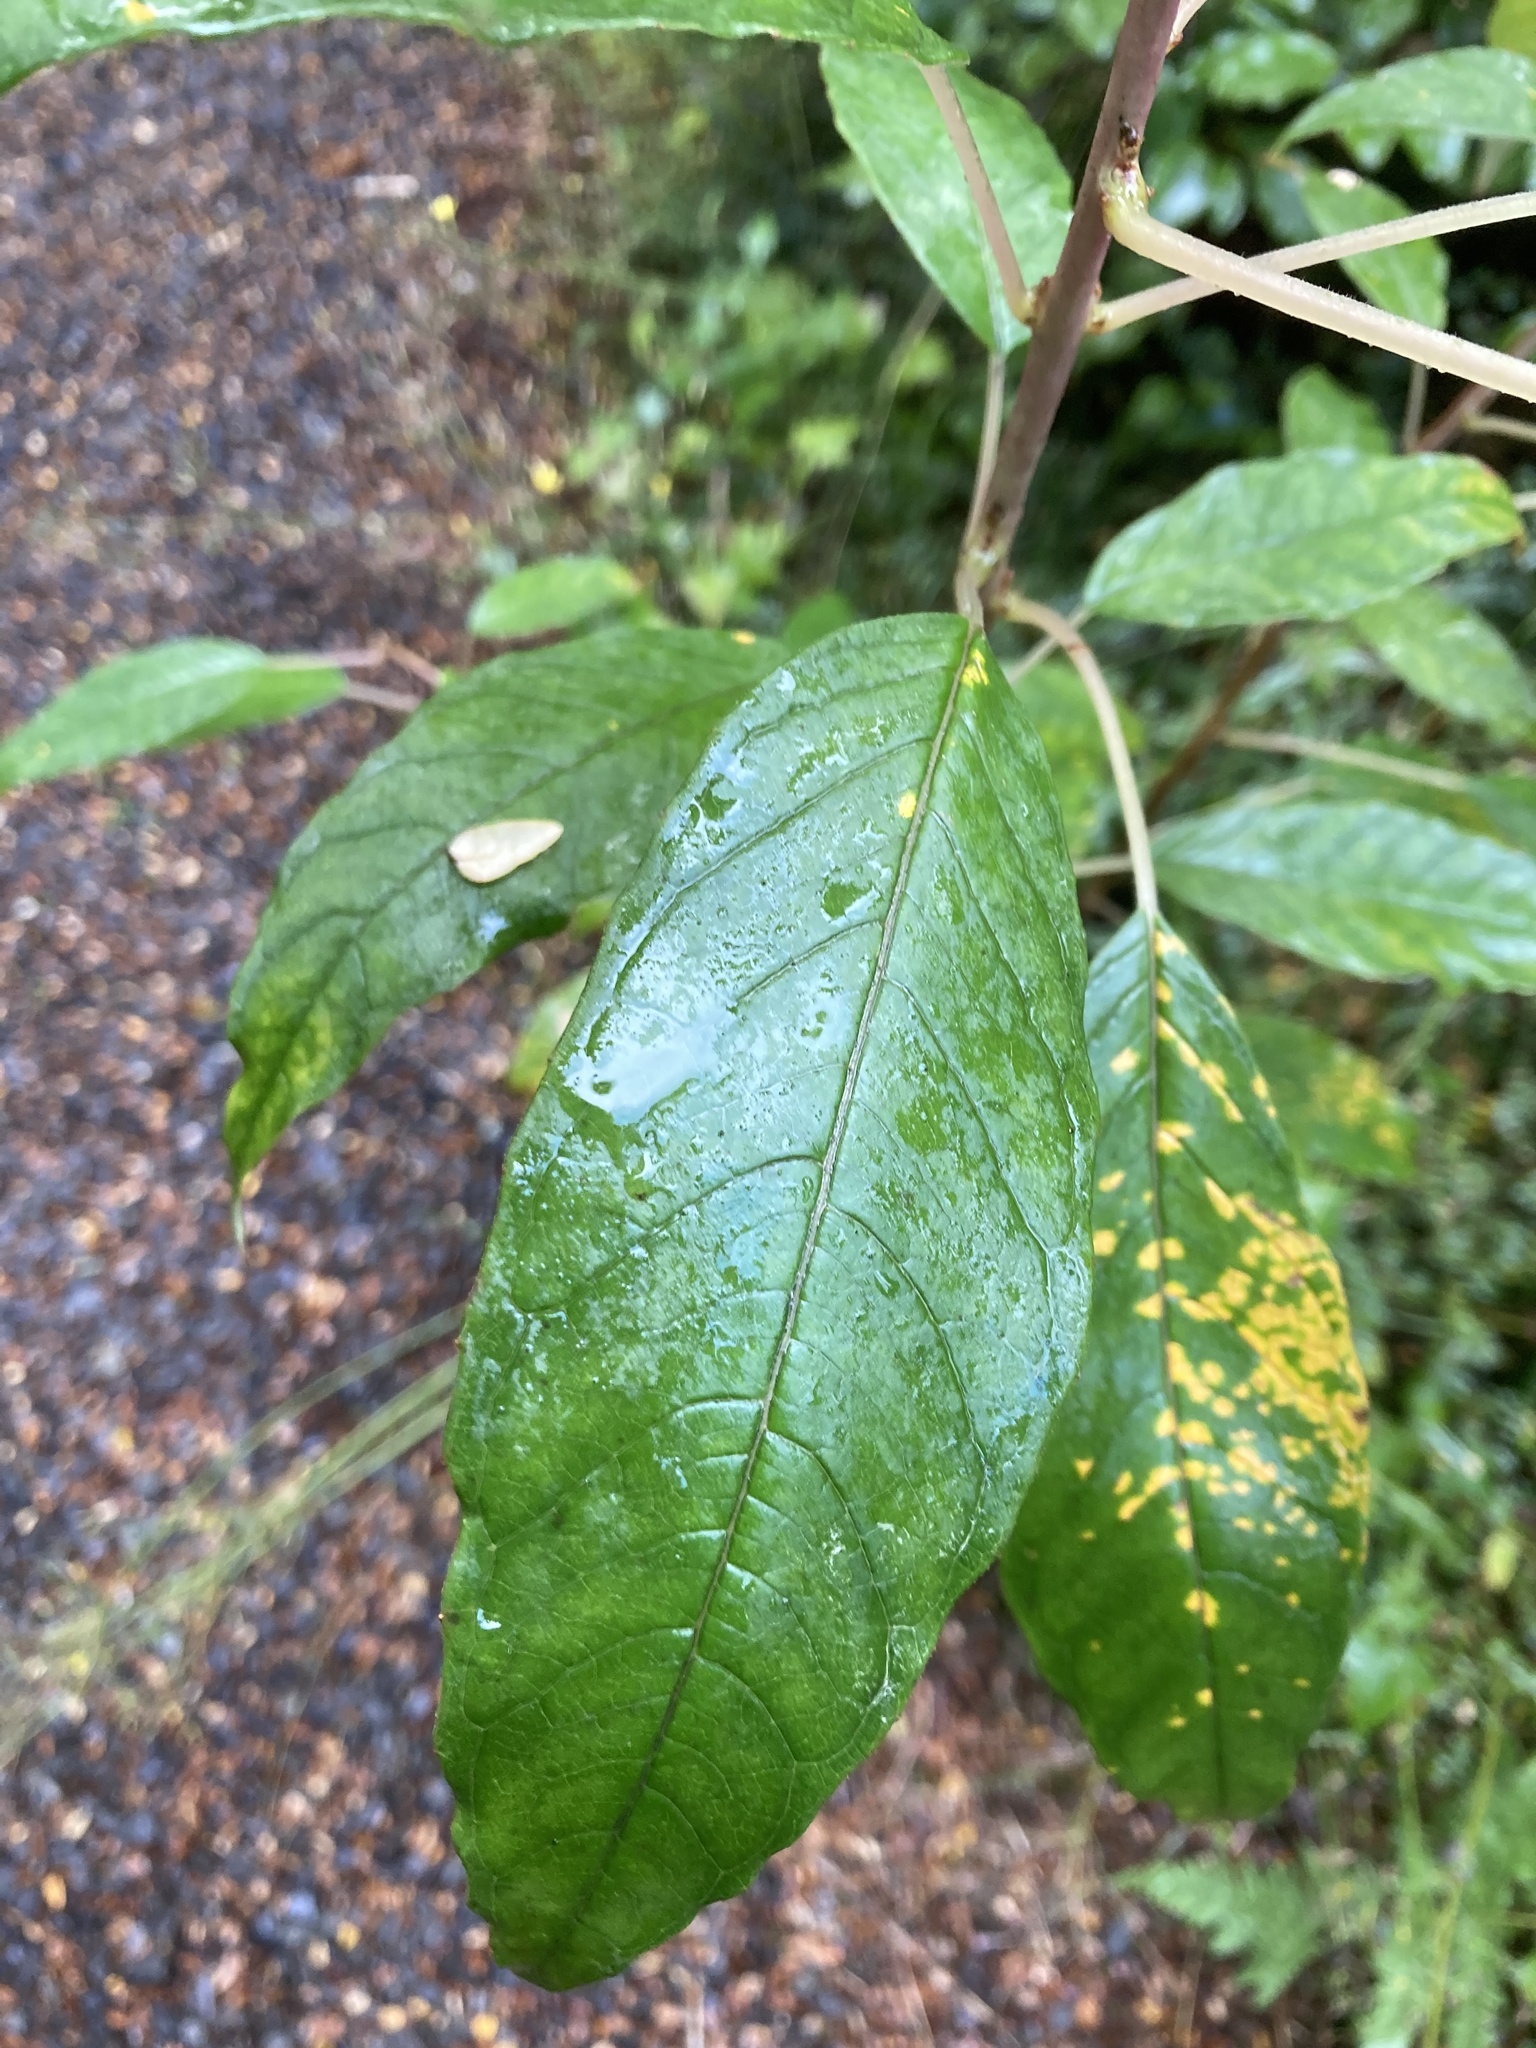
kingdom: Plantae
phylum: Tracheophyta
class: Magnoliopsida
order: Myrtales
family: Onagraceae
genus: Fuchsia
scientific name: Fuchsia excorticata
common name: Tree fuchsia
